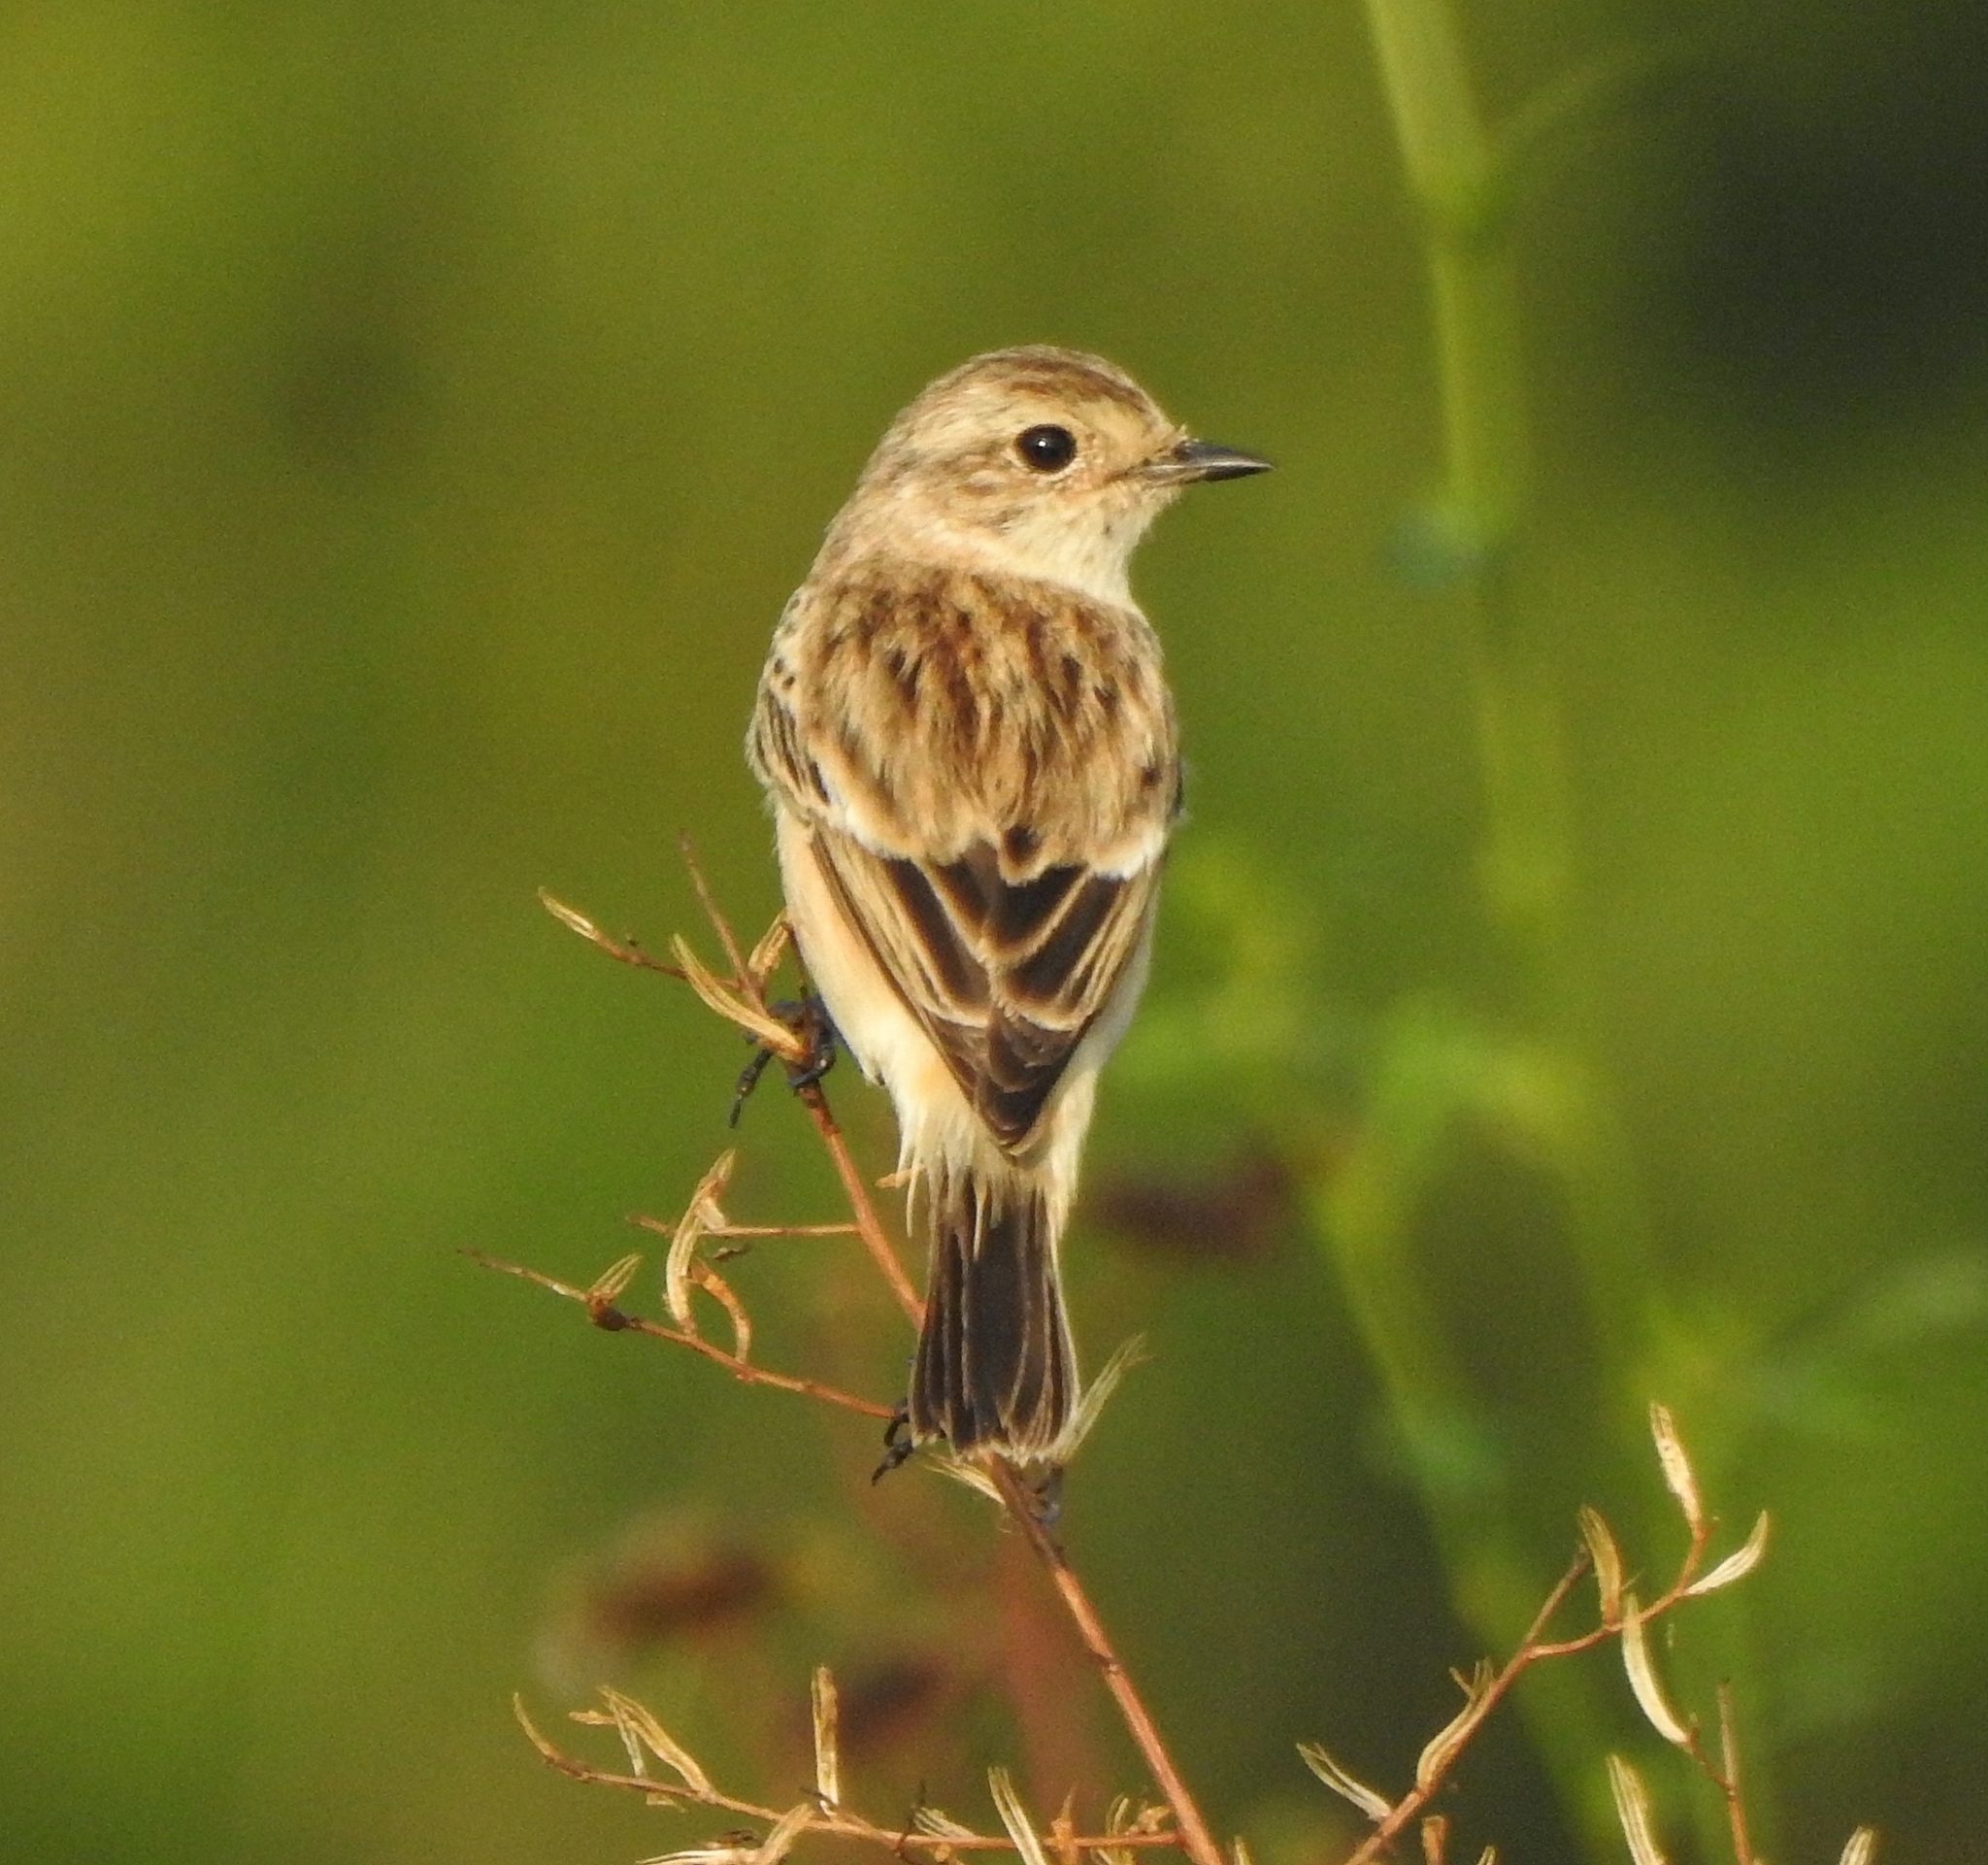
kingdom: Animalia
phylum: Chordata
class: Aves
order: Passeriformes
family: Muscicapidae
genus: Saxicola
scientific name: Saxicola maurus
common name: Siberian stonechat
